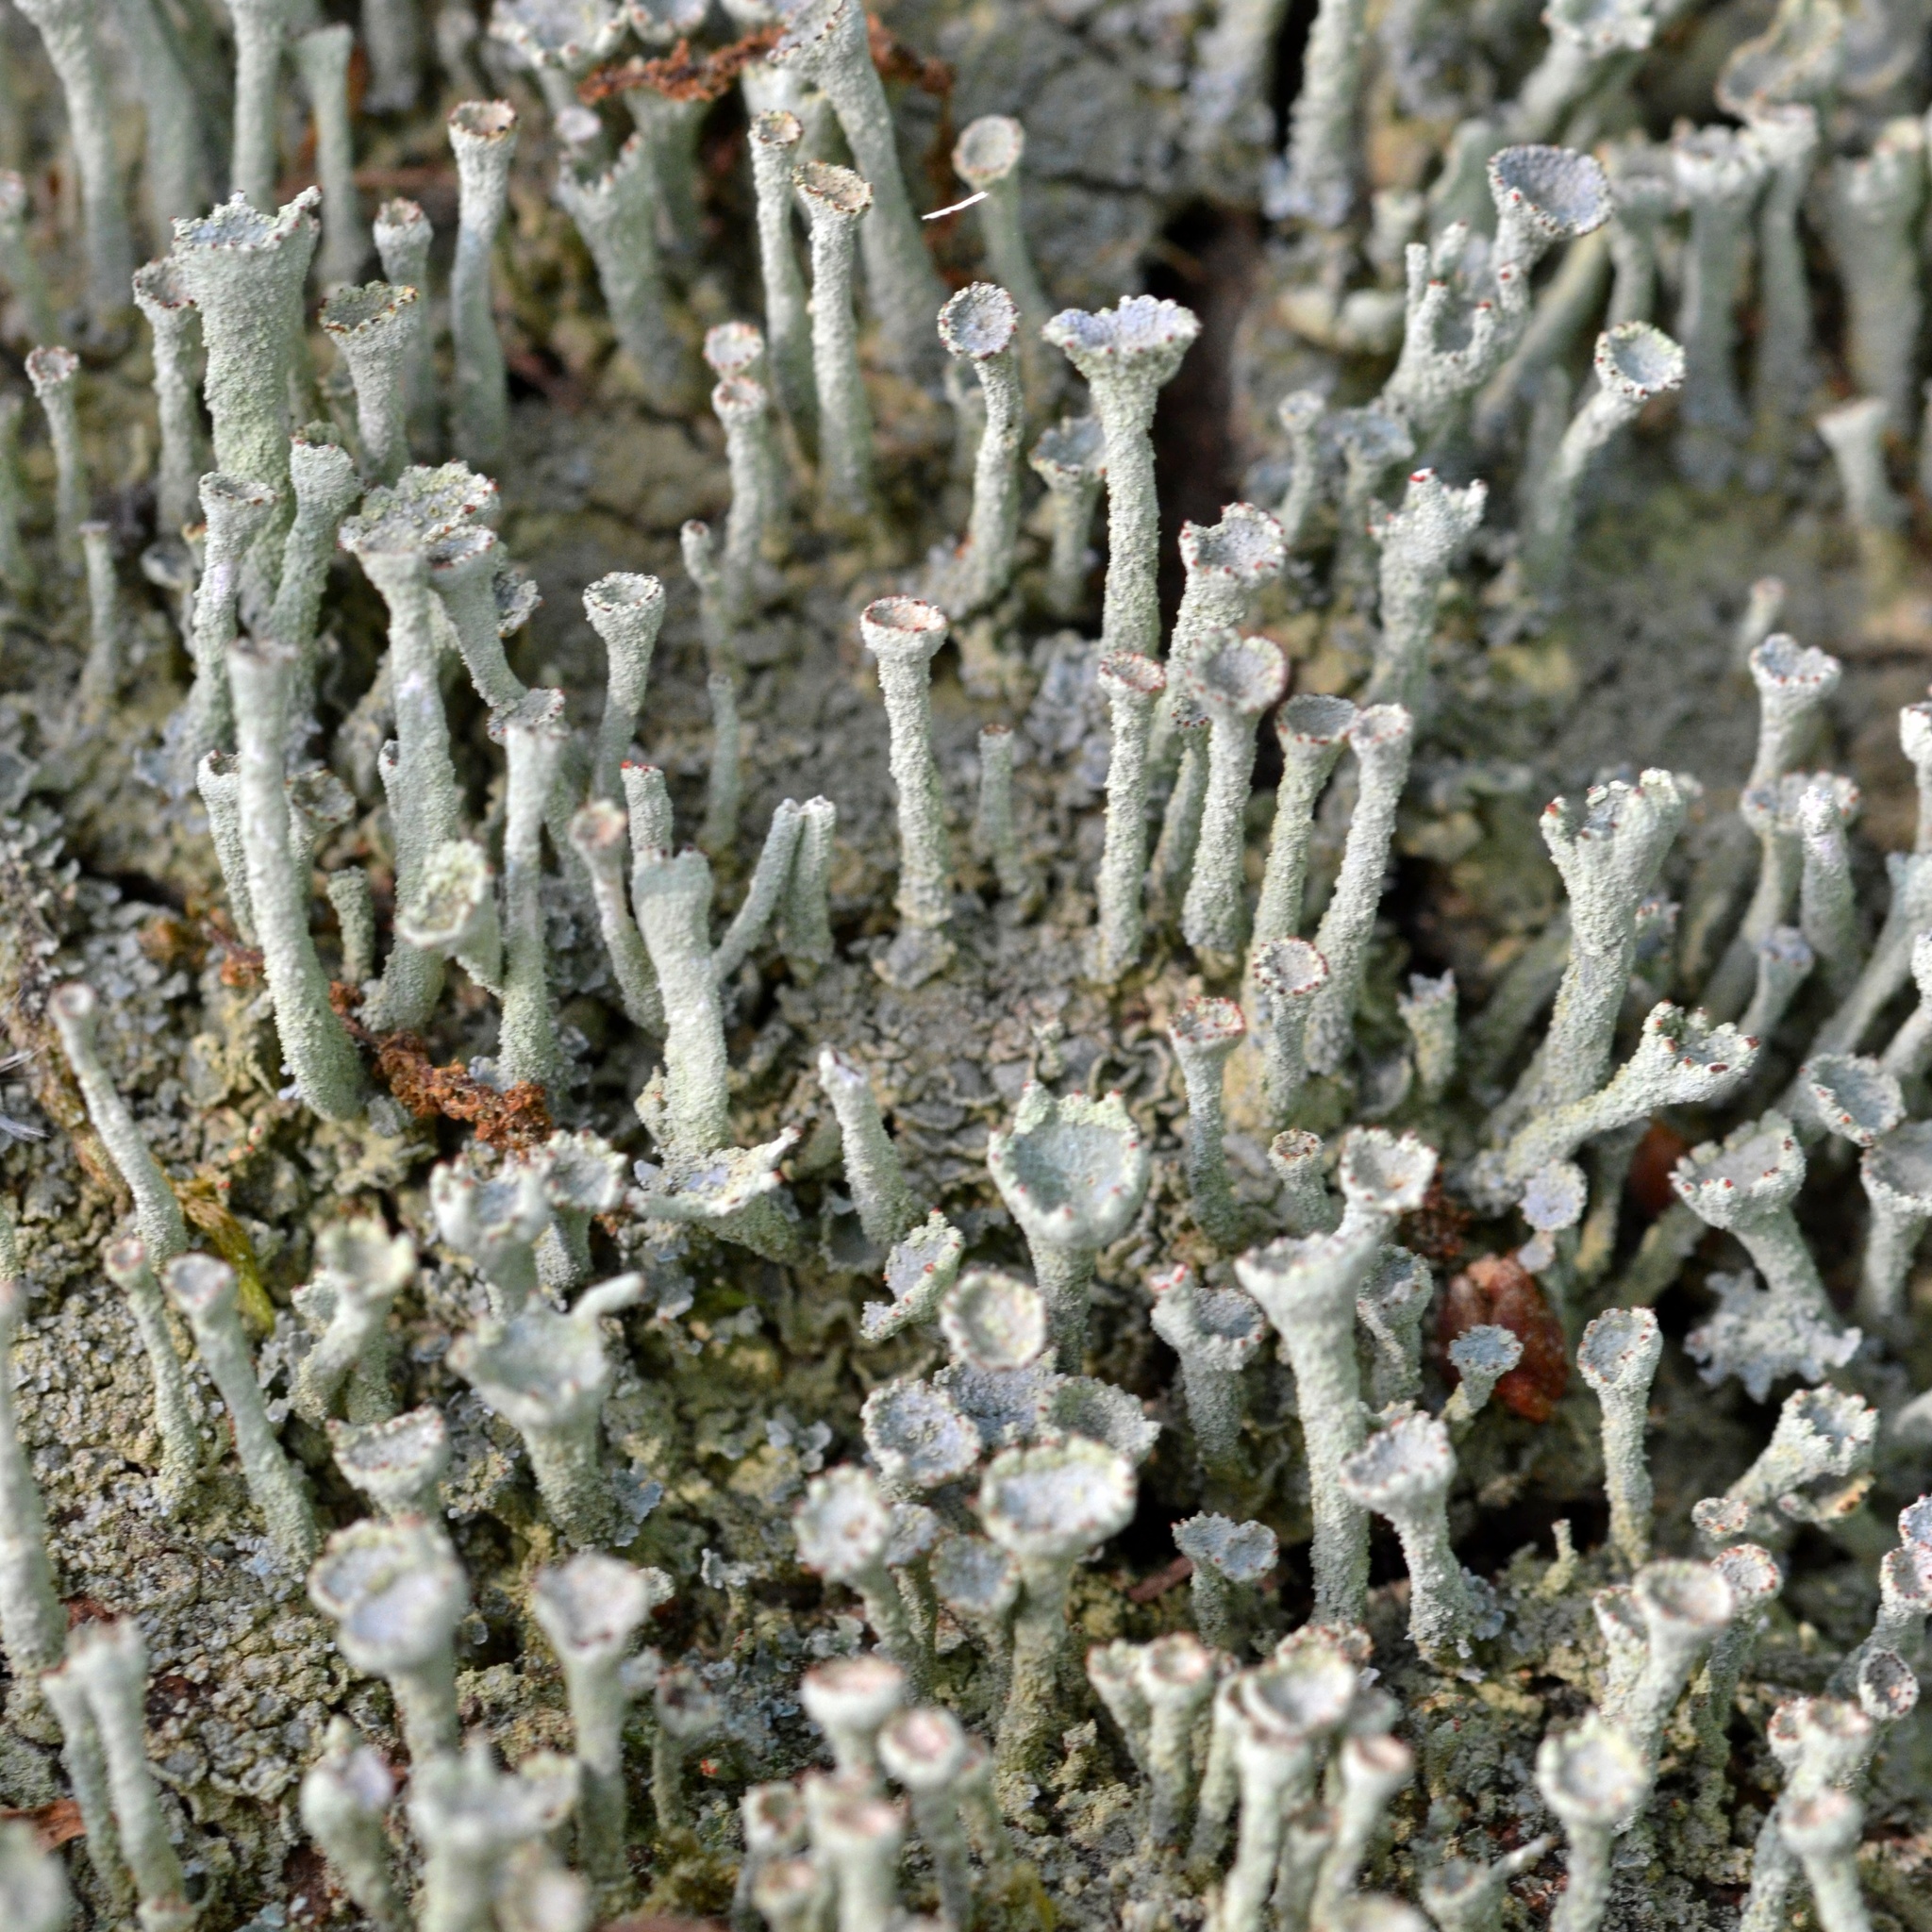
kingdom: Fungi
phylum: Ascomycota
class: Lecanoromycetes
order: Lecanorales
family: Cladoniaceae
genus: Cladonia
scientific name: Cladonia digitata
